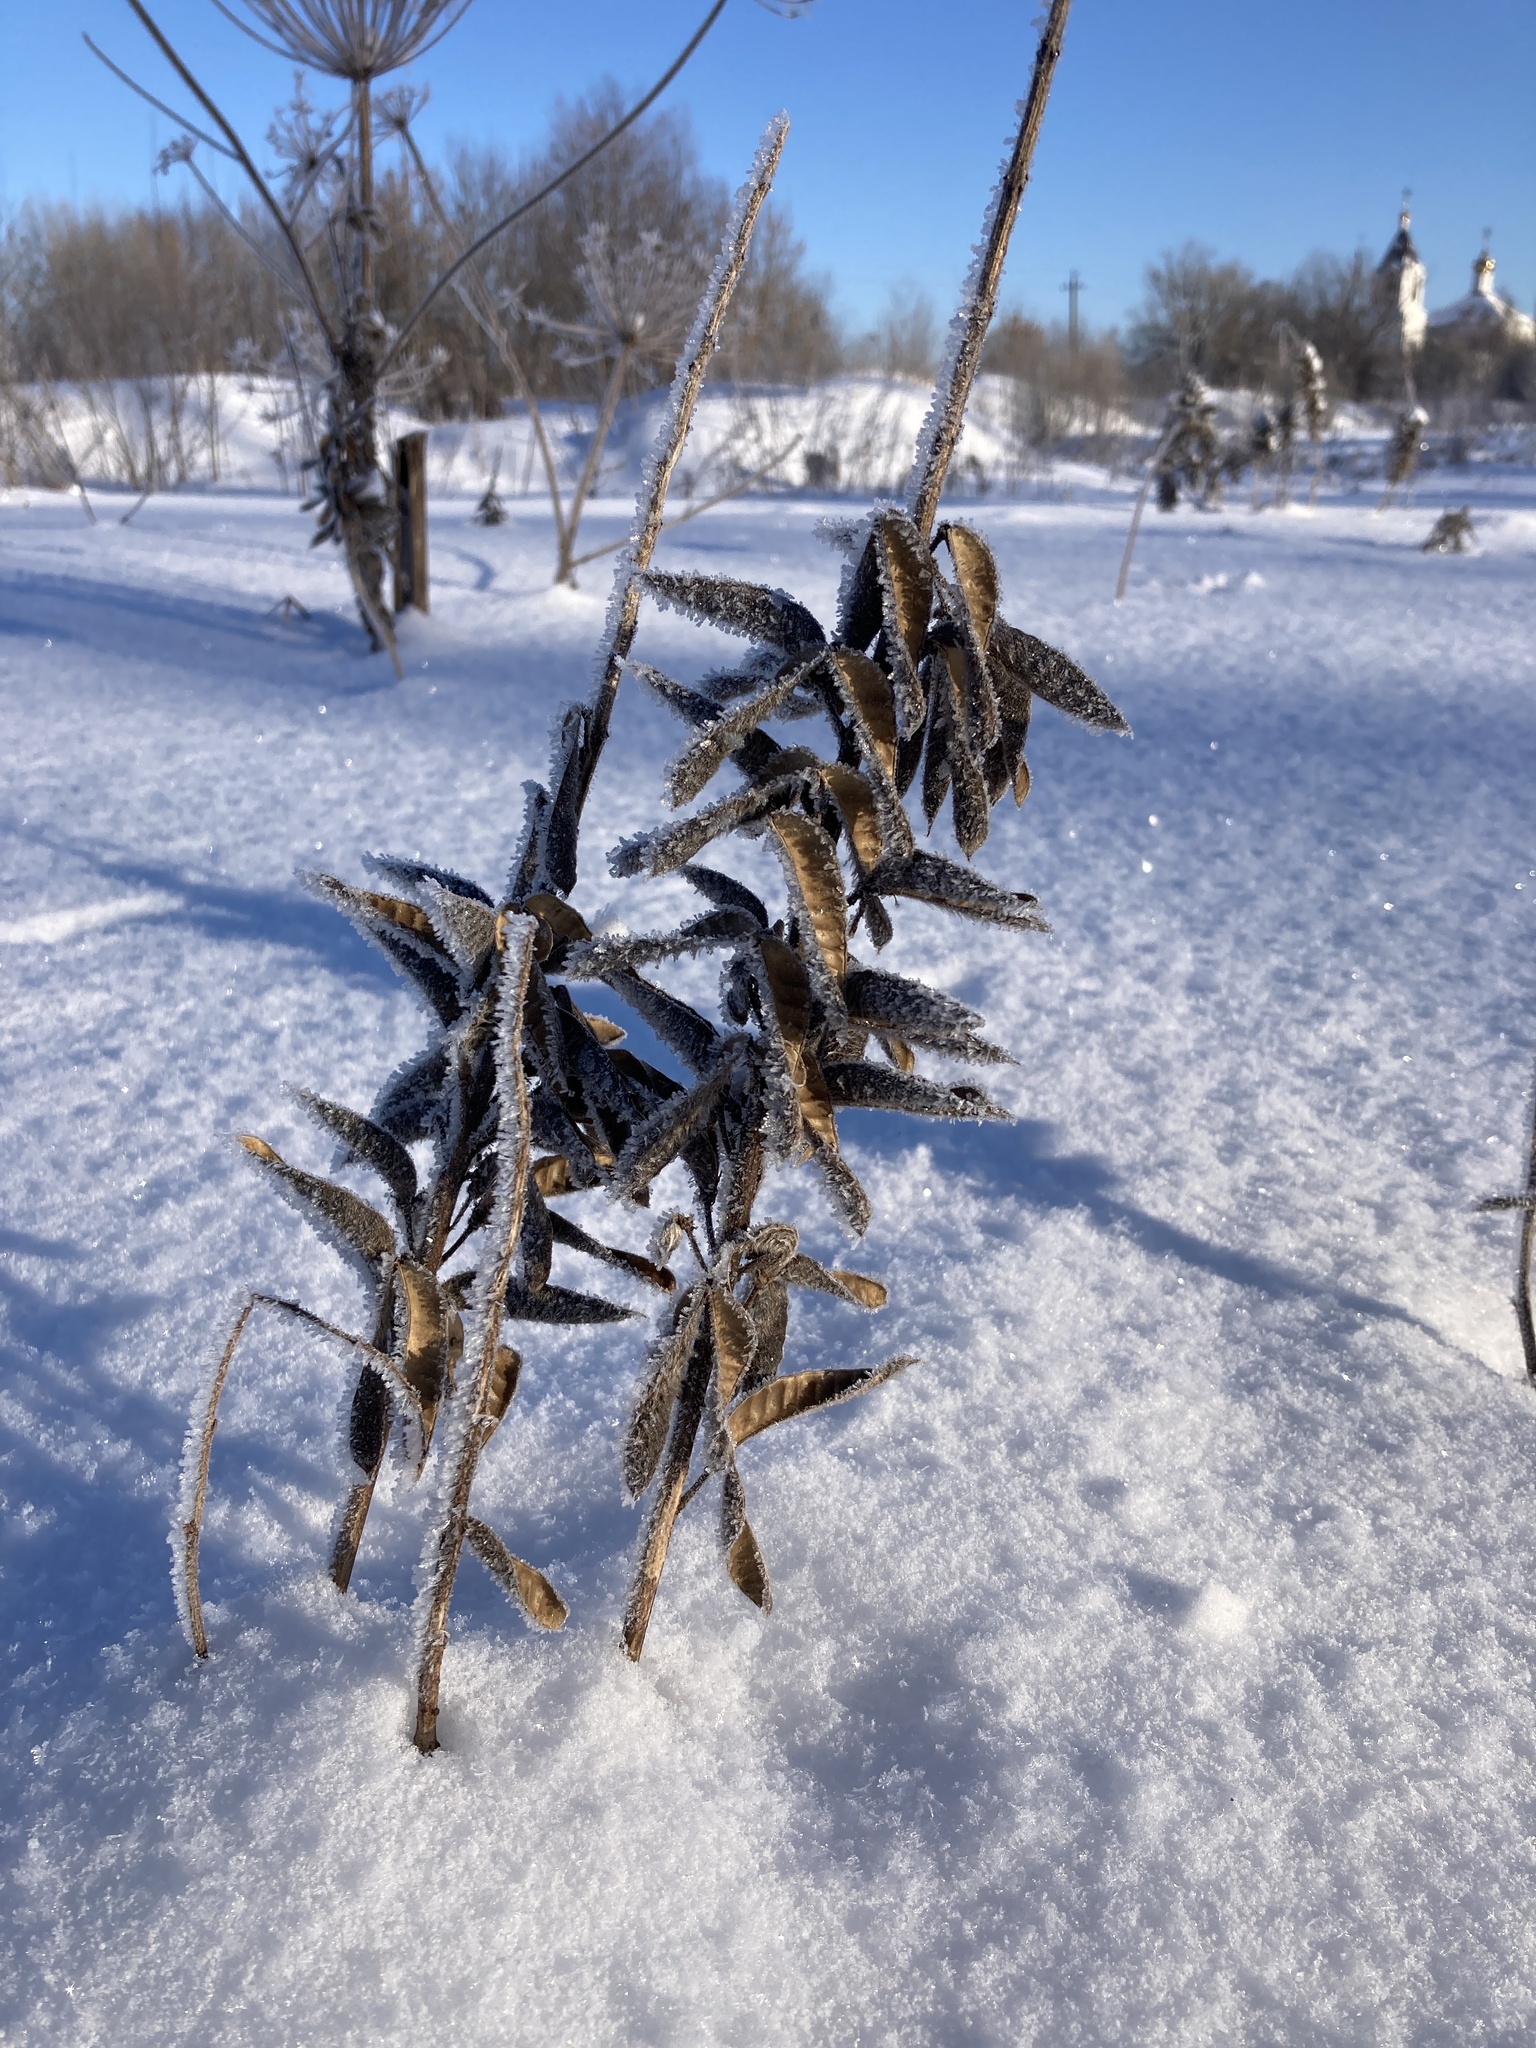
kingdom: Plantae
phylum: Tracheophyta
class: Magnoliopsida
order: Fabales
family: Fabaceae
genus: Lupinus
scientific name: Lupinus polyphyllus
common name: Garden lupin
